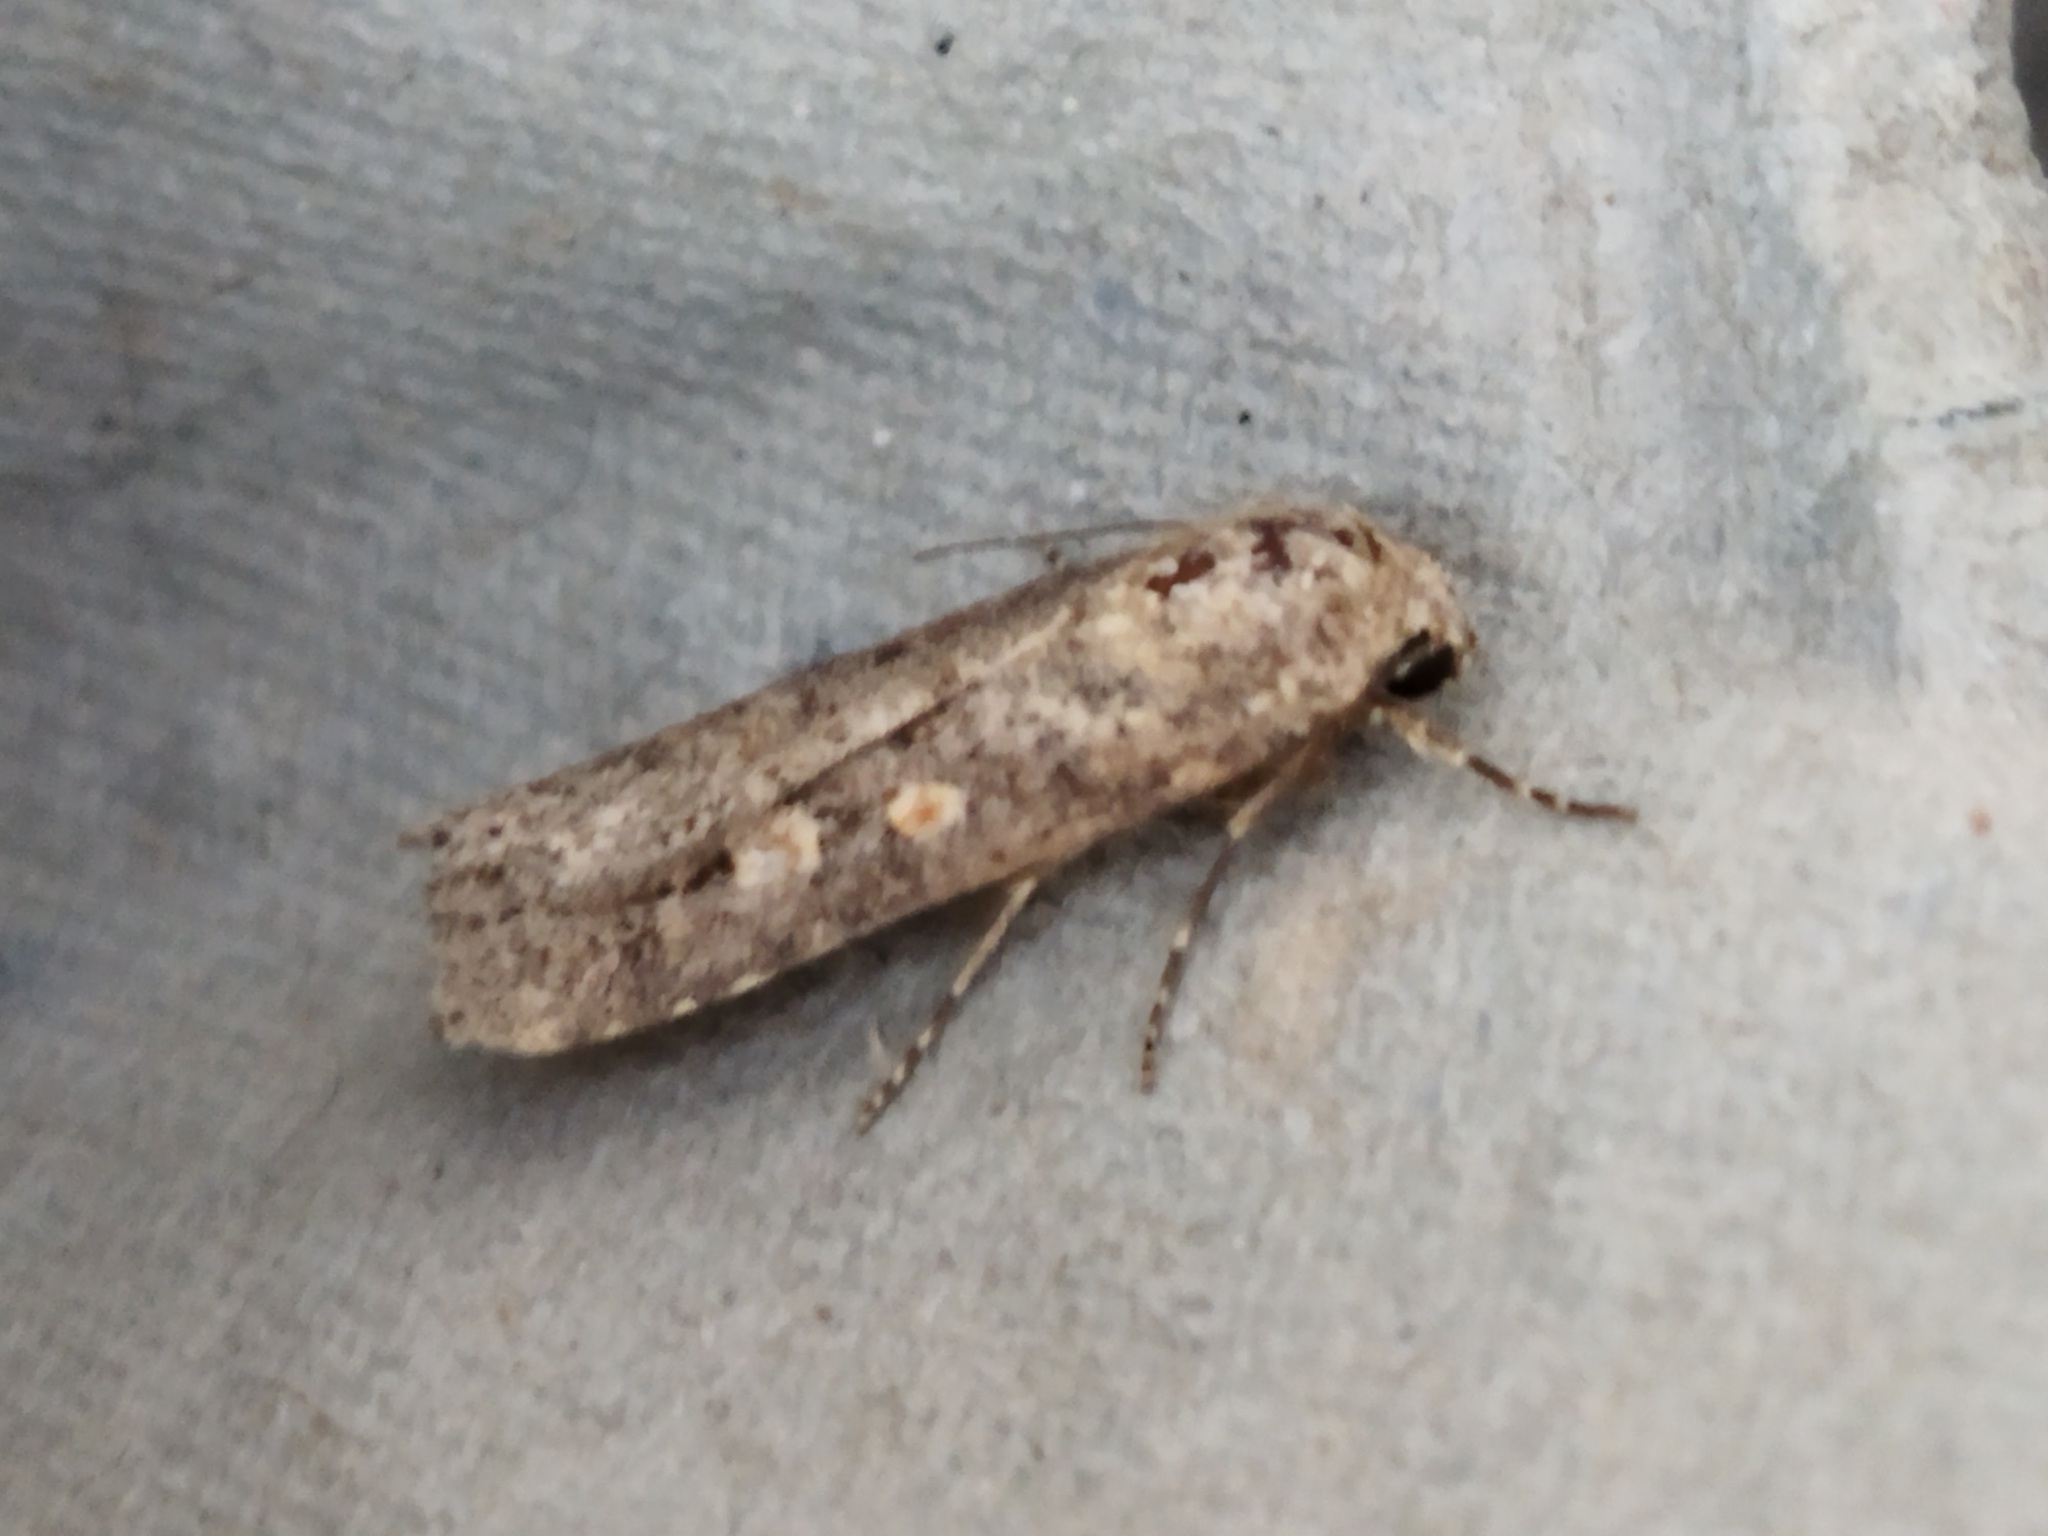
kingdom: Animalia
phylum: Arthropoda
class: Insecta
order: Lepidoptera
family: Noctuidae
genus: Spodoptera
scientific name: Spodoptera exigua
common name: Beet armyworm
